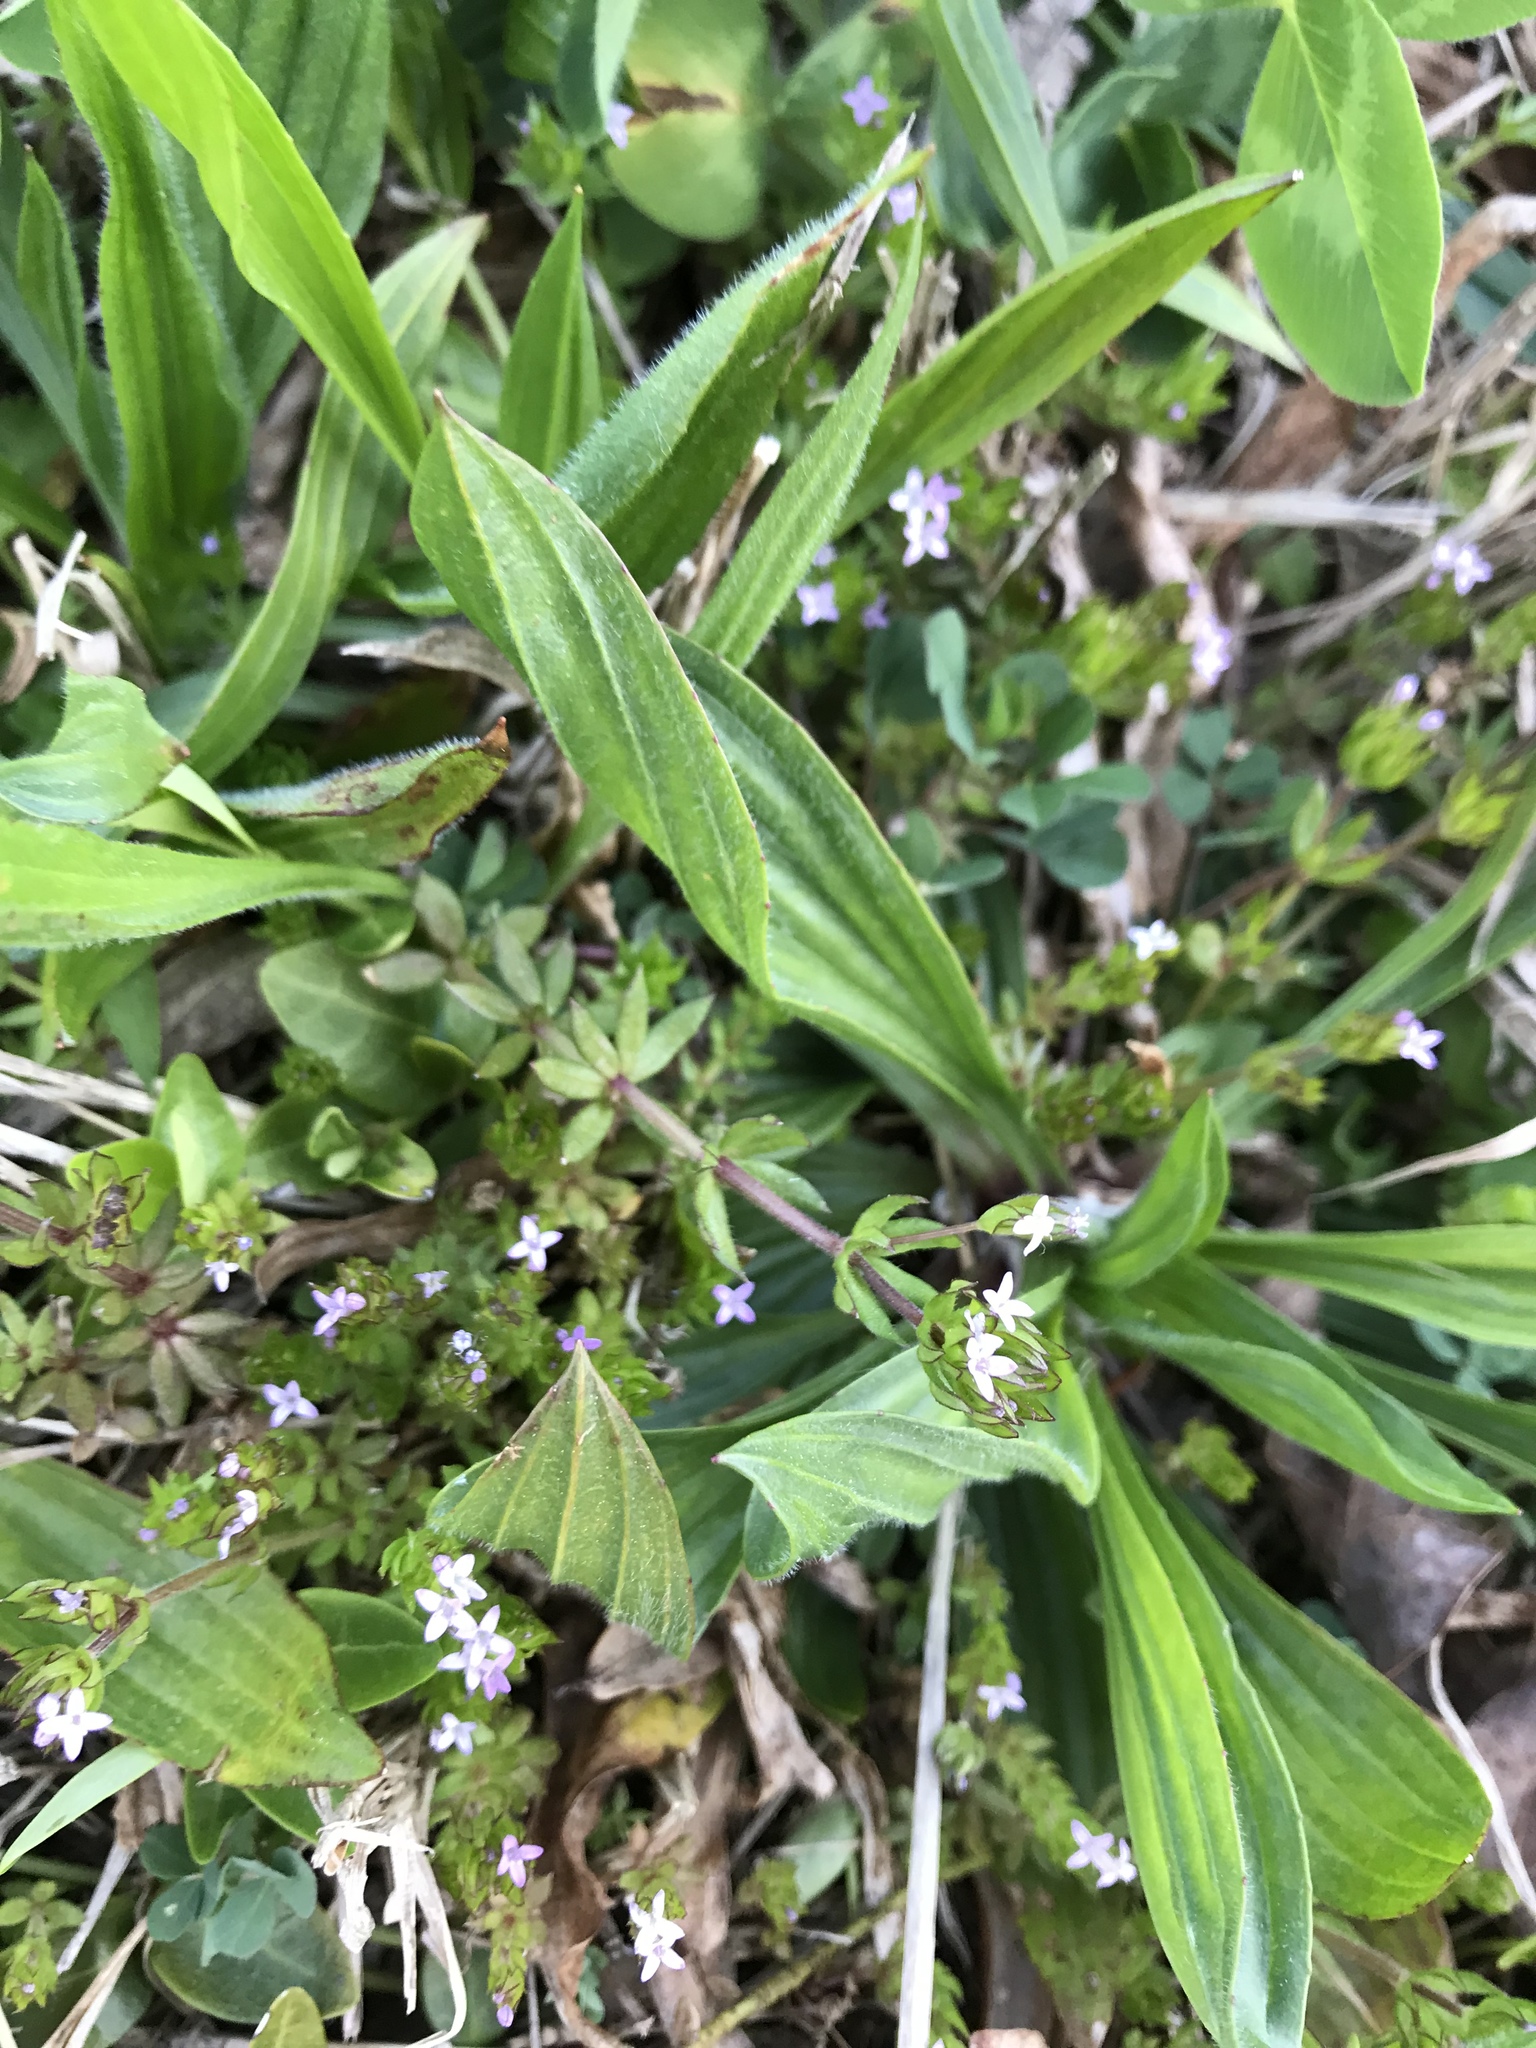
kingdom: Plantae
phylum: Tracheophyta
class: Magnoliopsida
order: Gentianales
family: Rubiaceae
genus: Sherardia
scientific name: Sherardia arvensis
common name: Field madder
